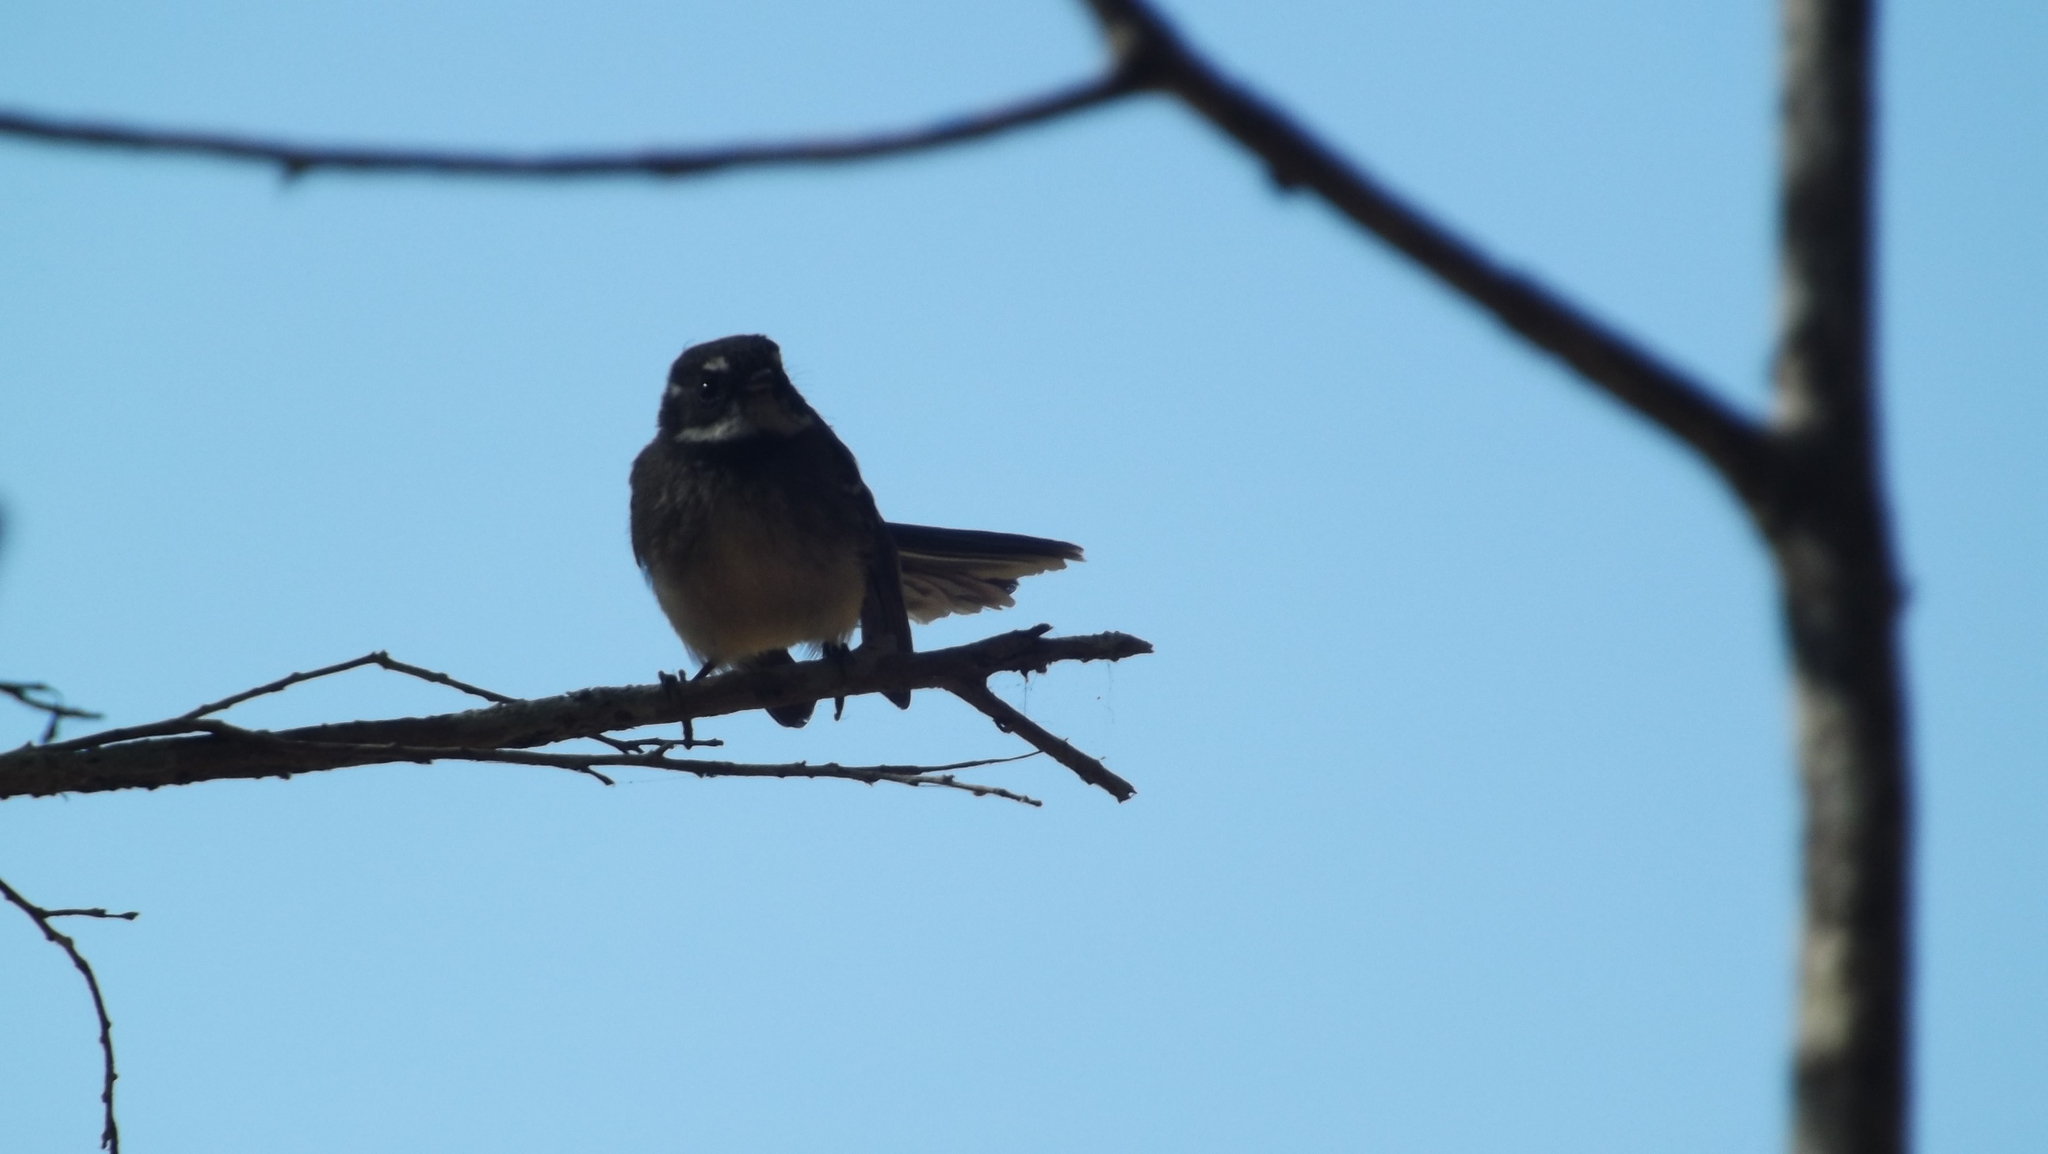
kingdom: Animalia
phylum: Chordata
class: Aves
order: Passeriformes
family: Rhipiduridae
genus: Rhipidura
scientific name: Rhipidura albiscapa
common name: Grey fantail
